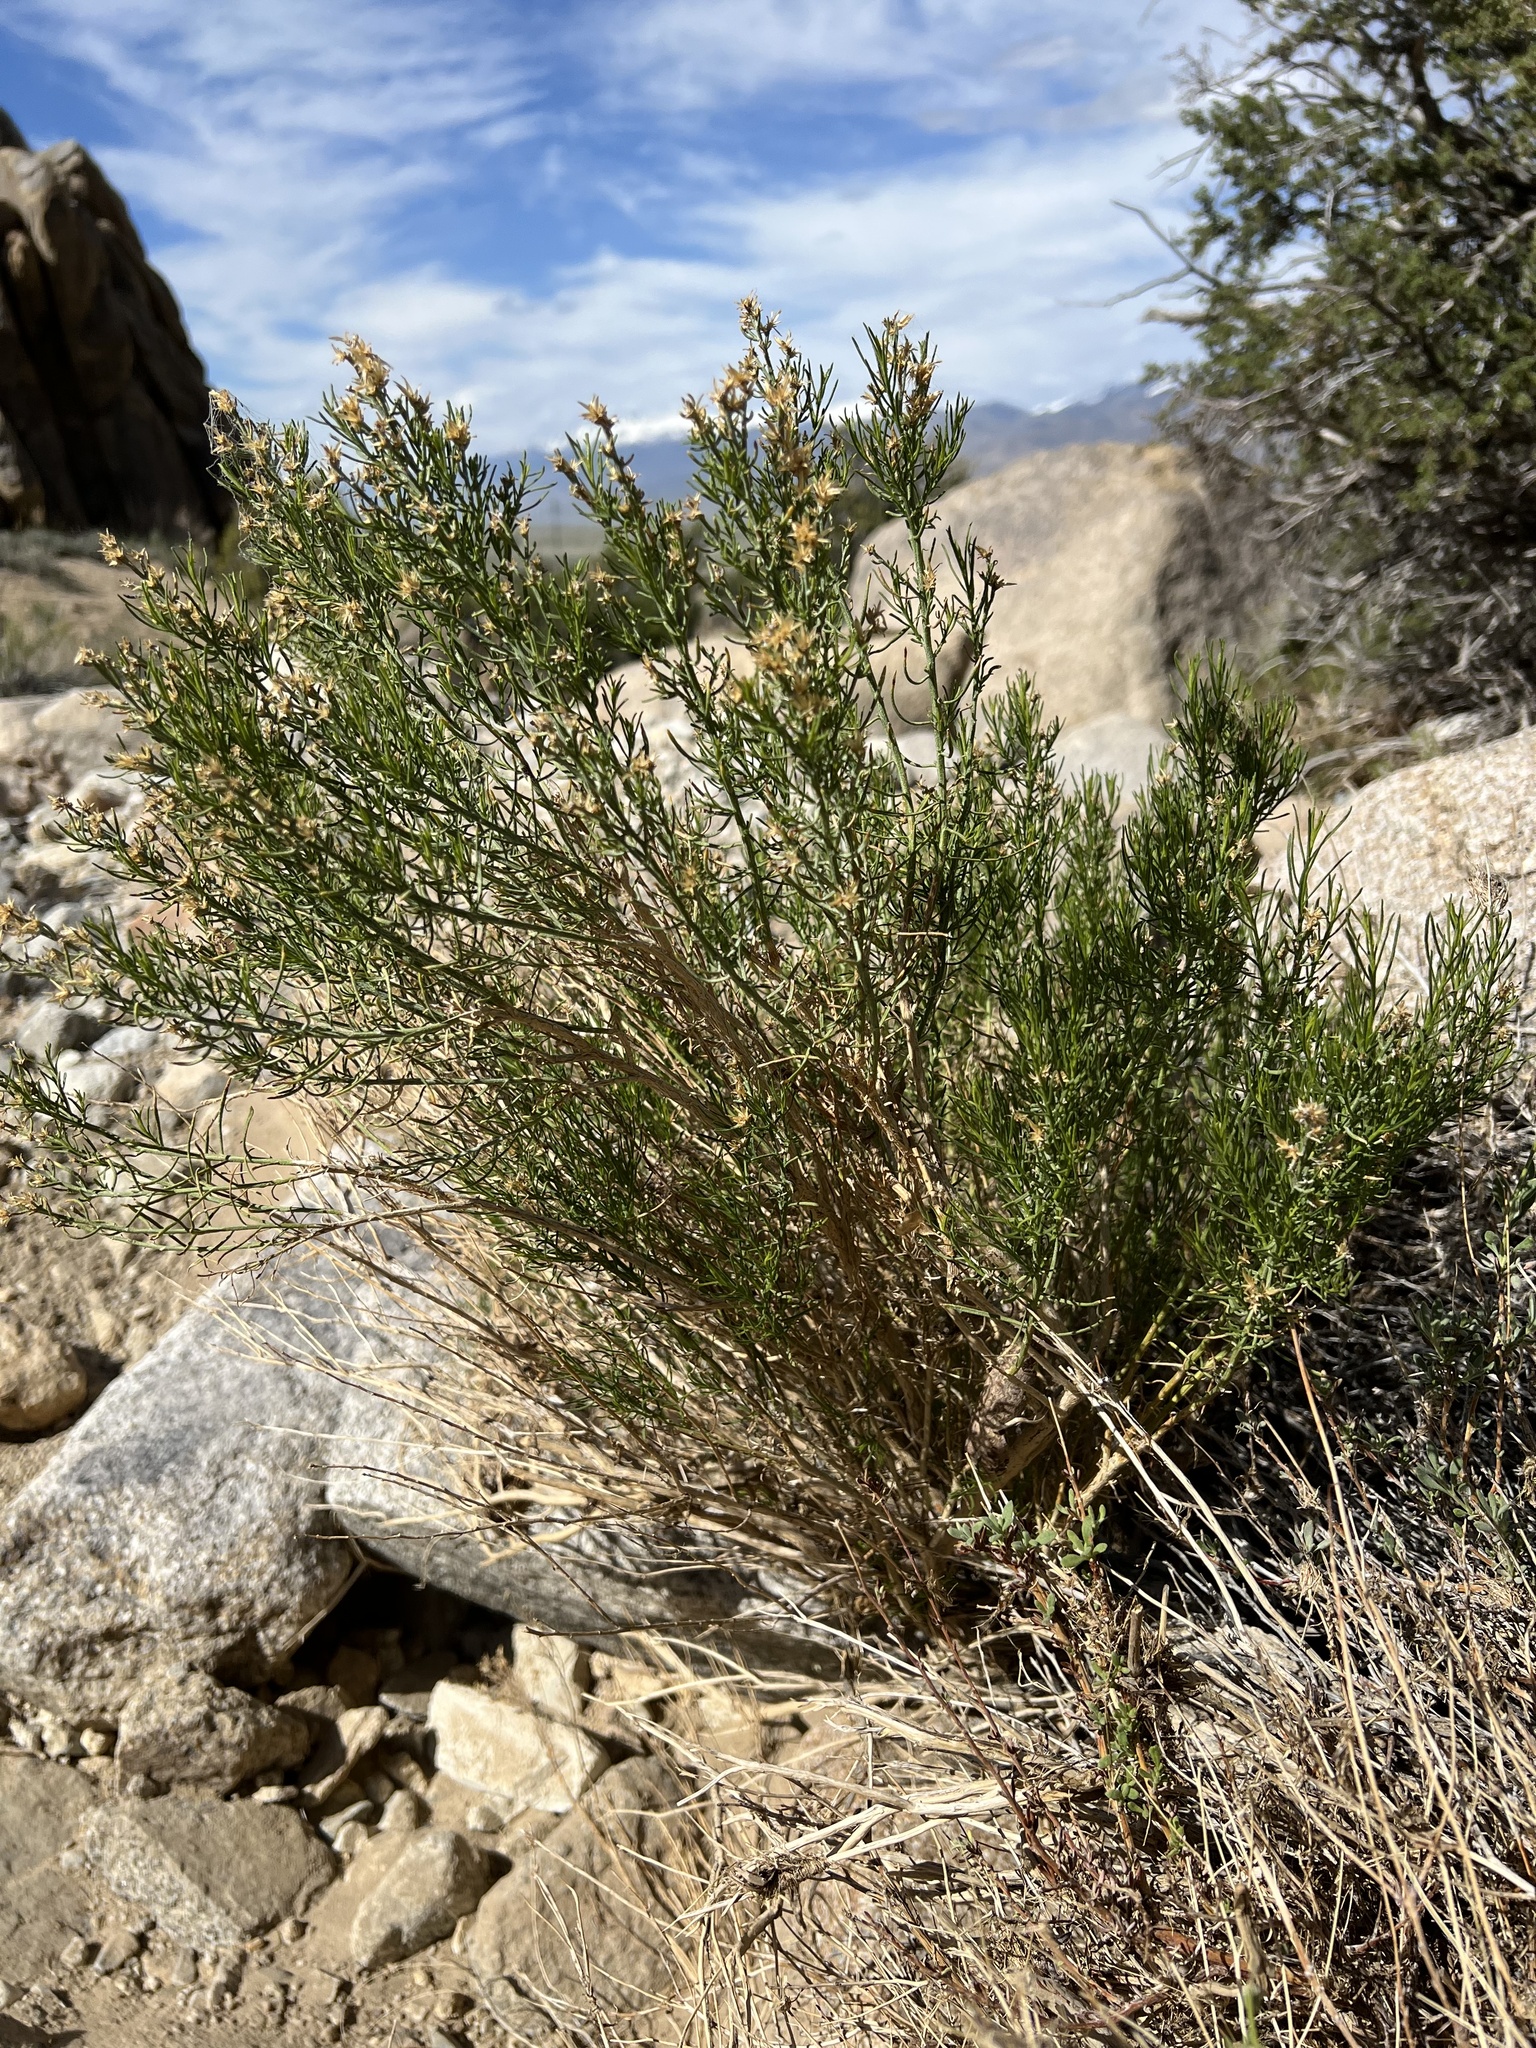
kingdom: Plantae
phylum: Tracheophyta
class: Magnoliopsida
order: Asterales
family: Asteraceae
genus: Ericameria
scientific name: Ericameria teretifolia
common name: Round-leaf rabbitbrush
